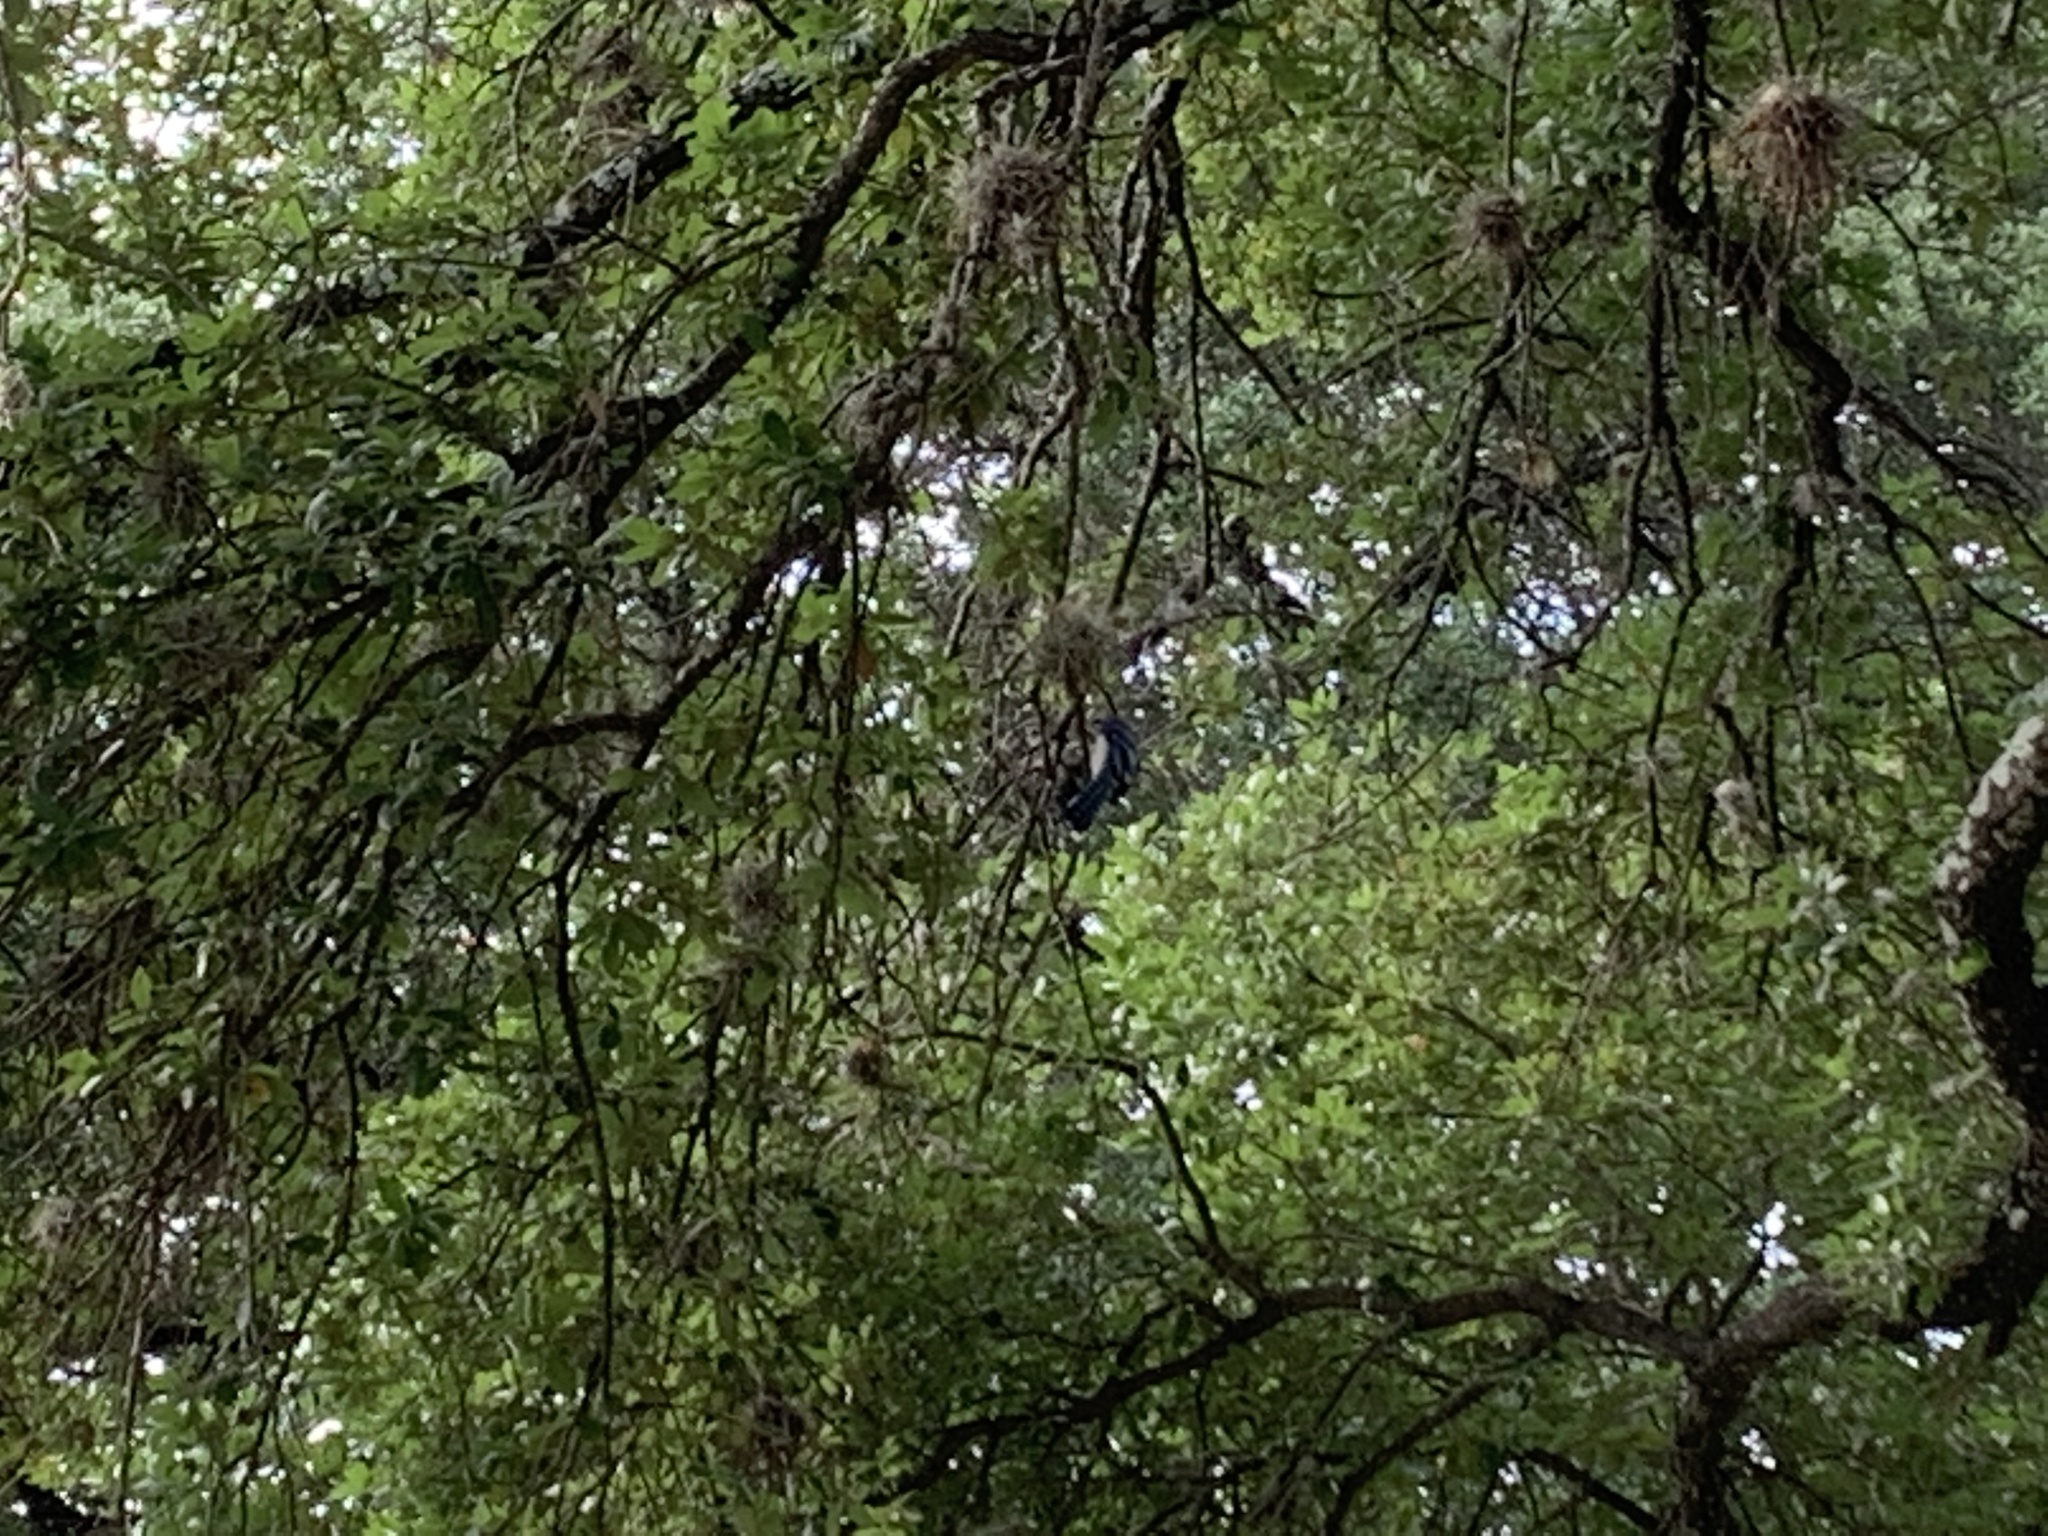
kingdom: Animalia
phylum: Chordata
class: Aves
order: Passeriformes
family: Corvidae
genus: Cyanocitta
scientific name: Cyanocitta cristata
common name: Blue jay
